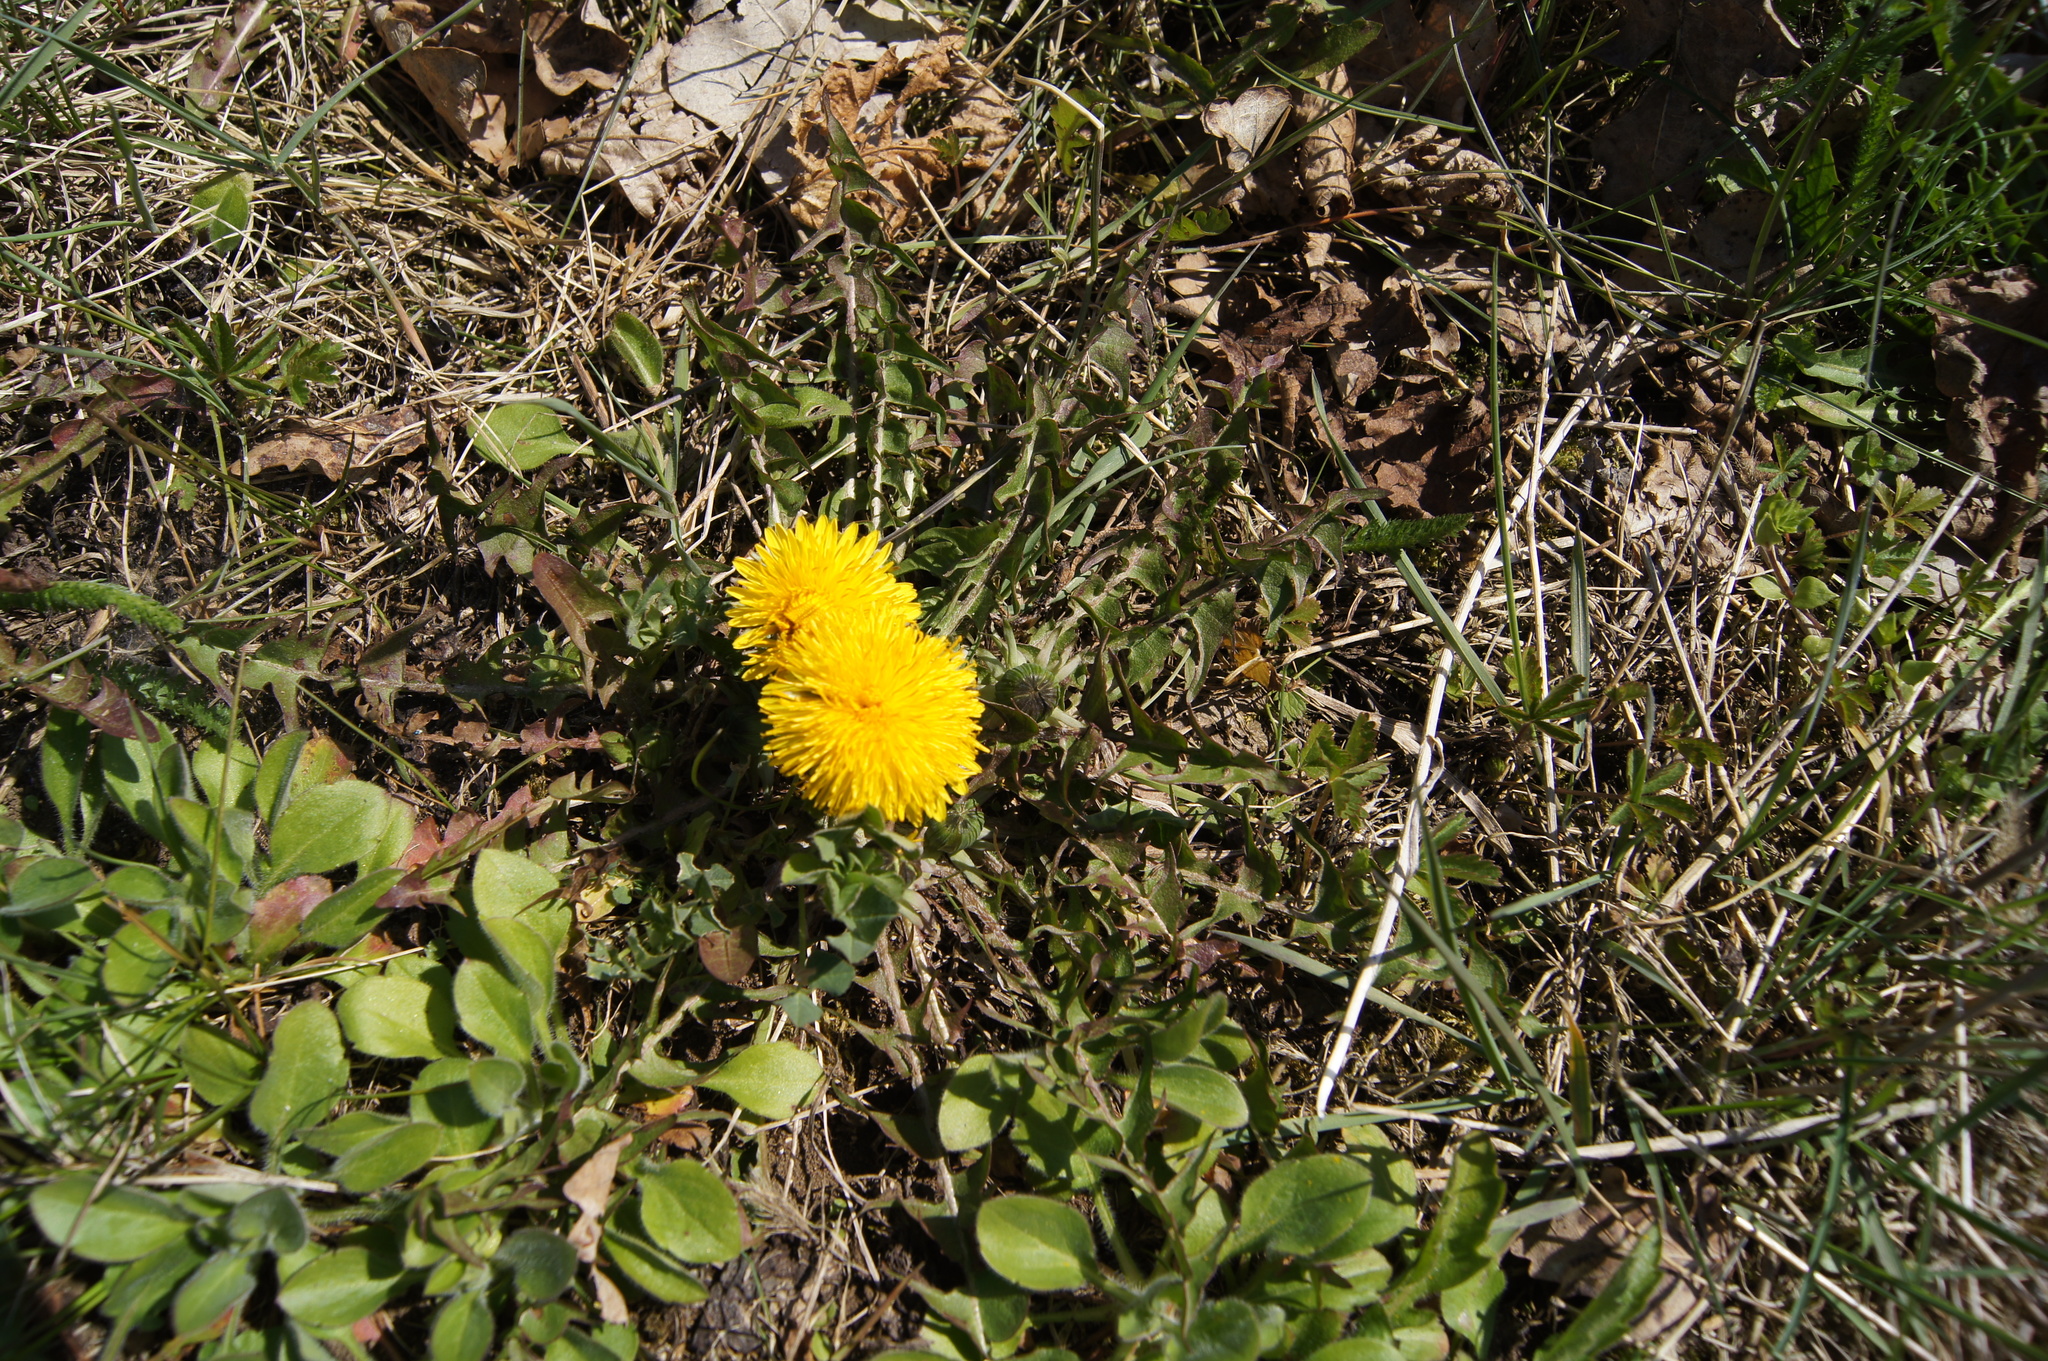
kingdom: Plantae
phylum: Tracheophyta
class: Magnoliopsida
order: Asterales
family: Asteraceae
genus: Taraxacum
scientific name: Taraxacum officinale
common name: Common dandelion
